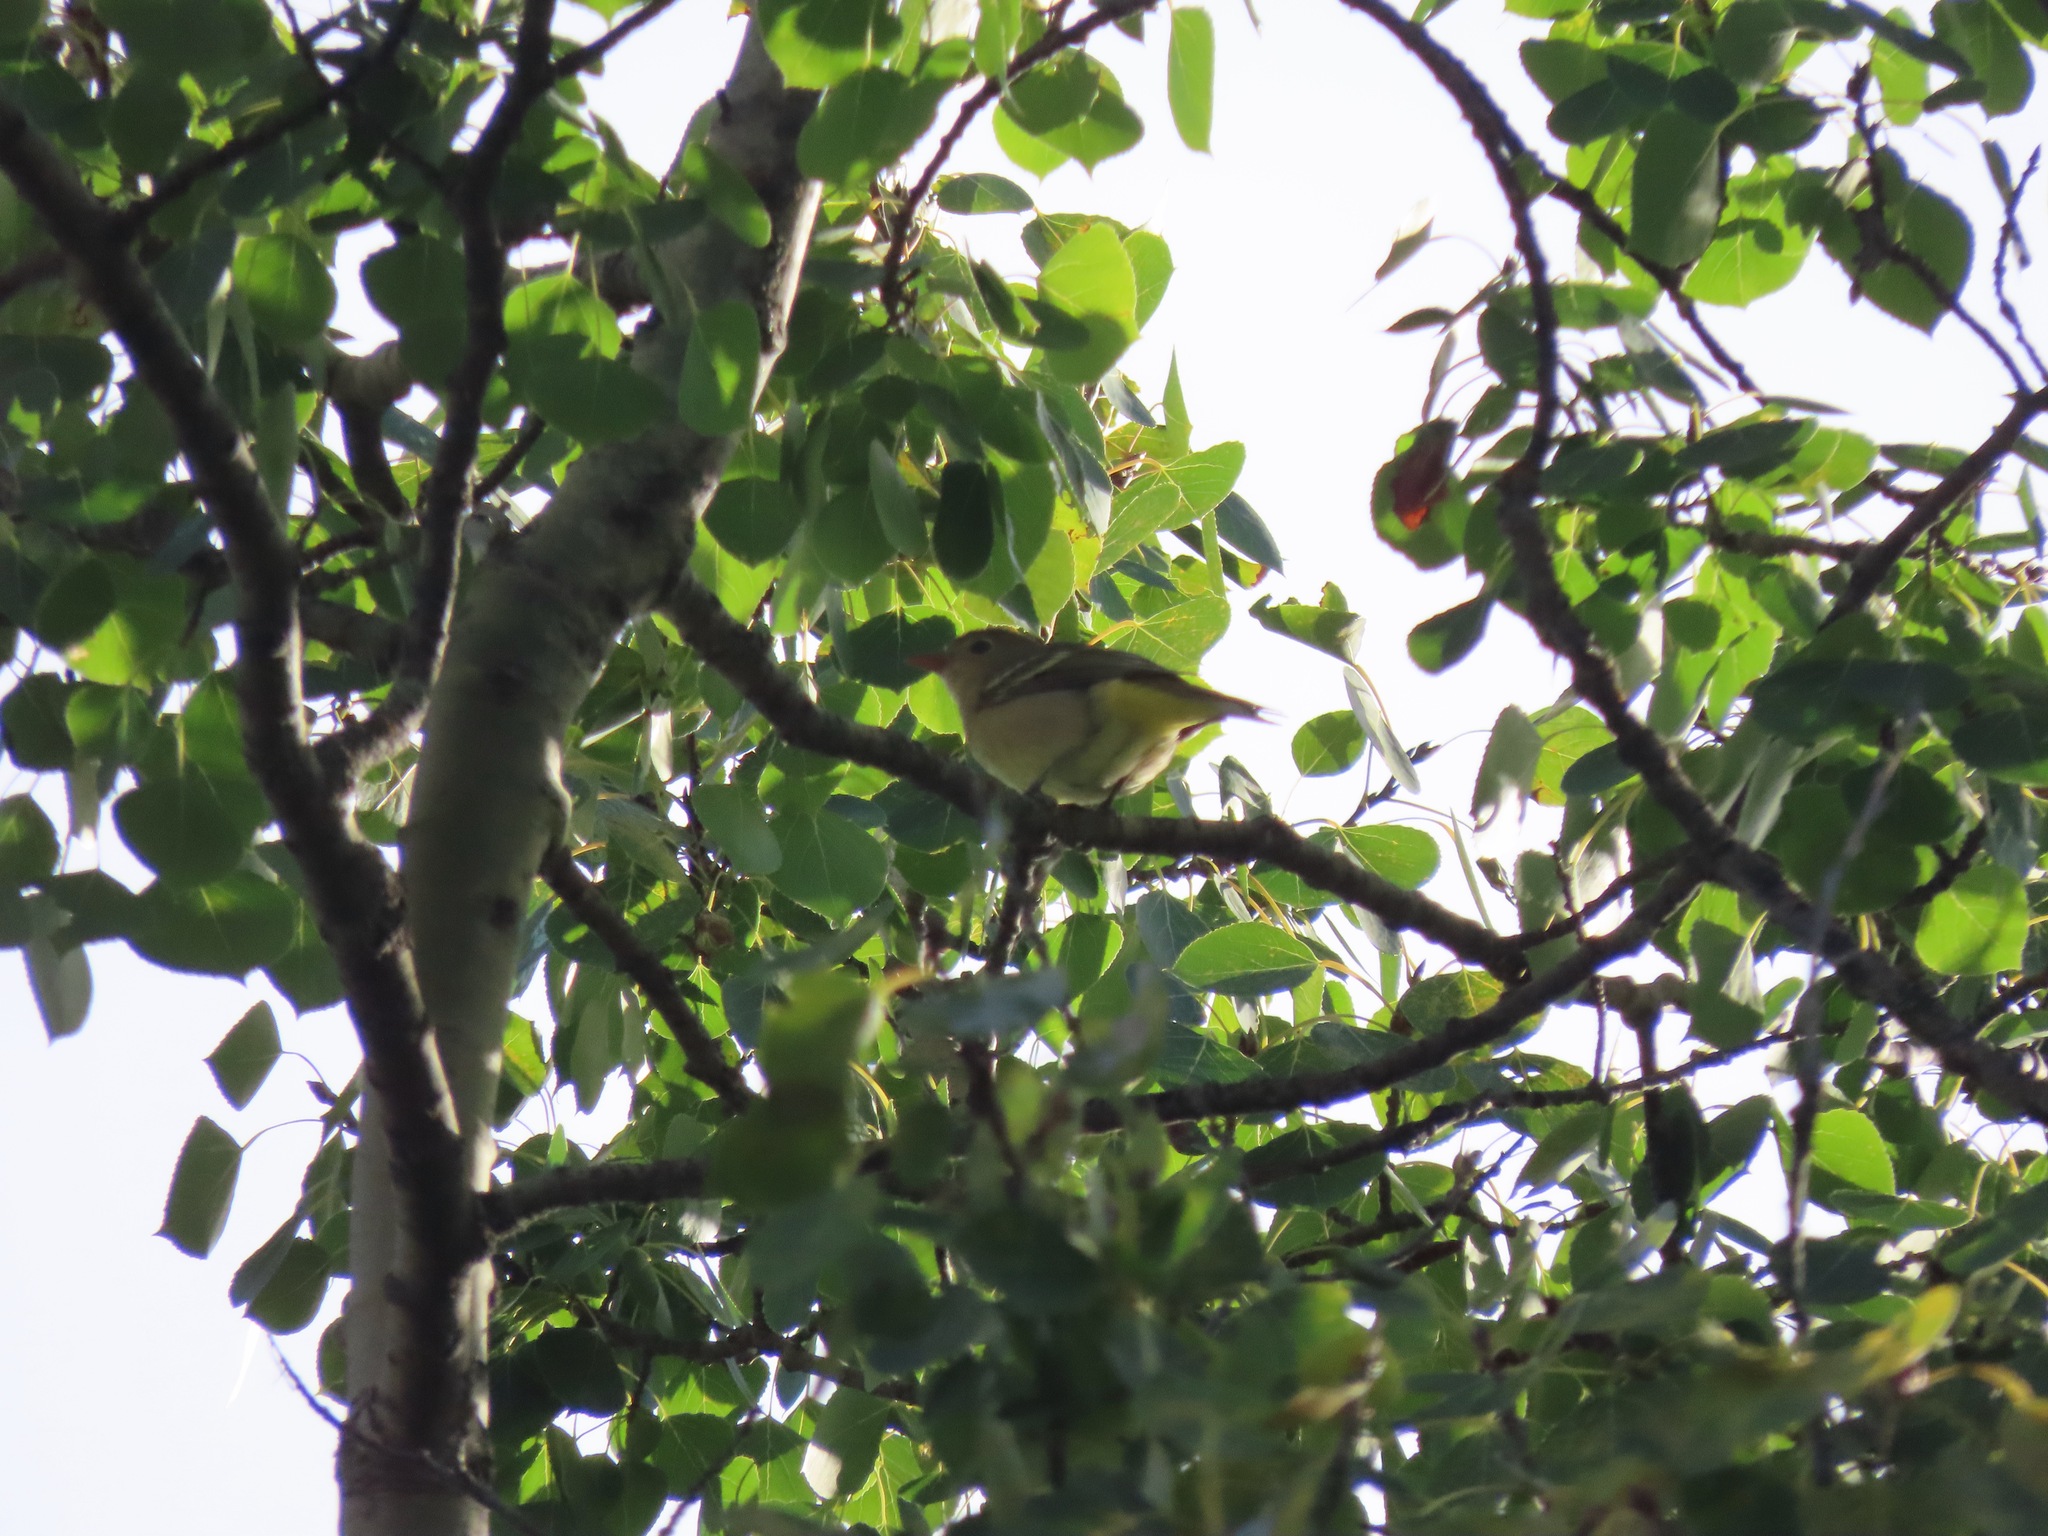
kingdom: Animalia
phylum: Chordata
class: Aves
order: Passeriformes
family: Cardinalidae
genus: Piranga
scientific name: Piranga ludoviciana
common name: Western tanager
